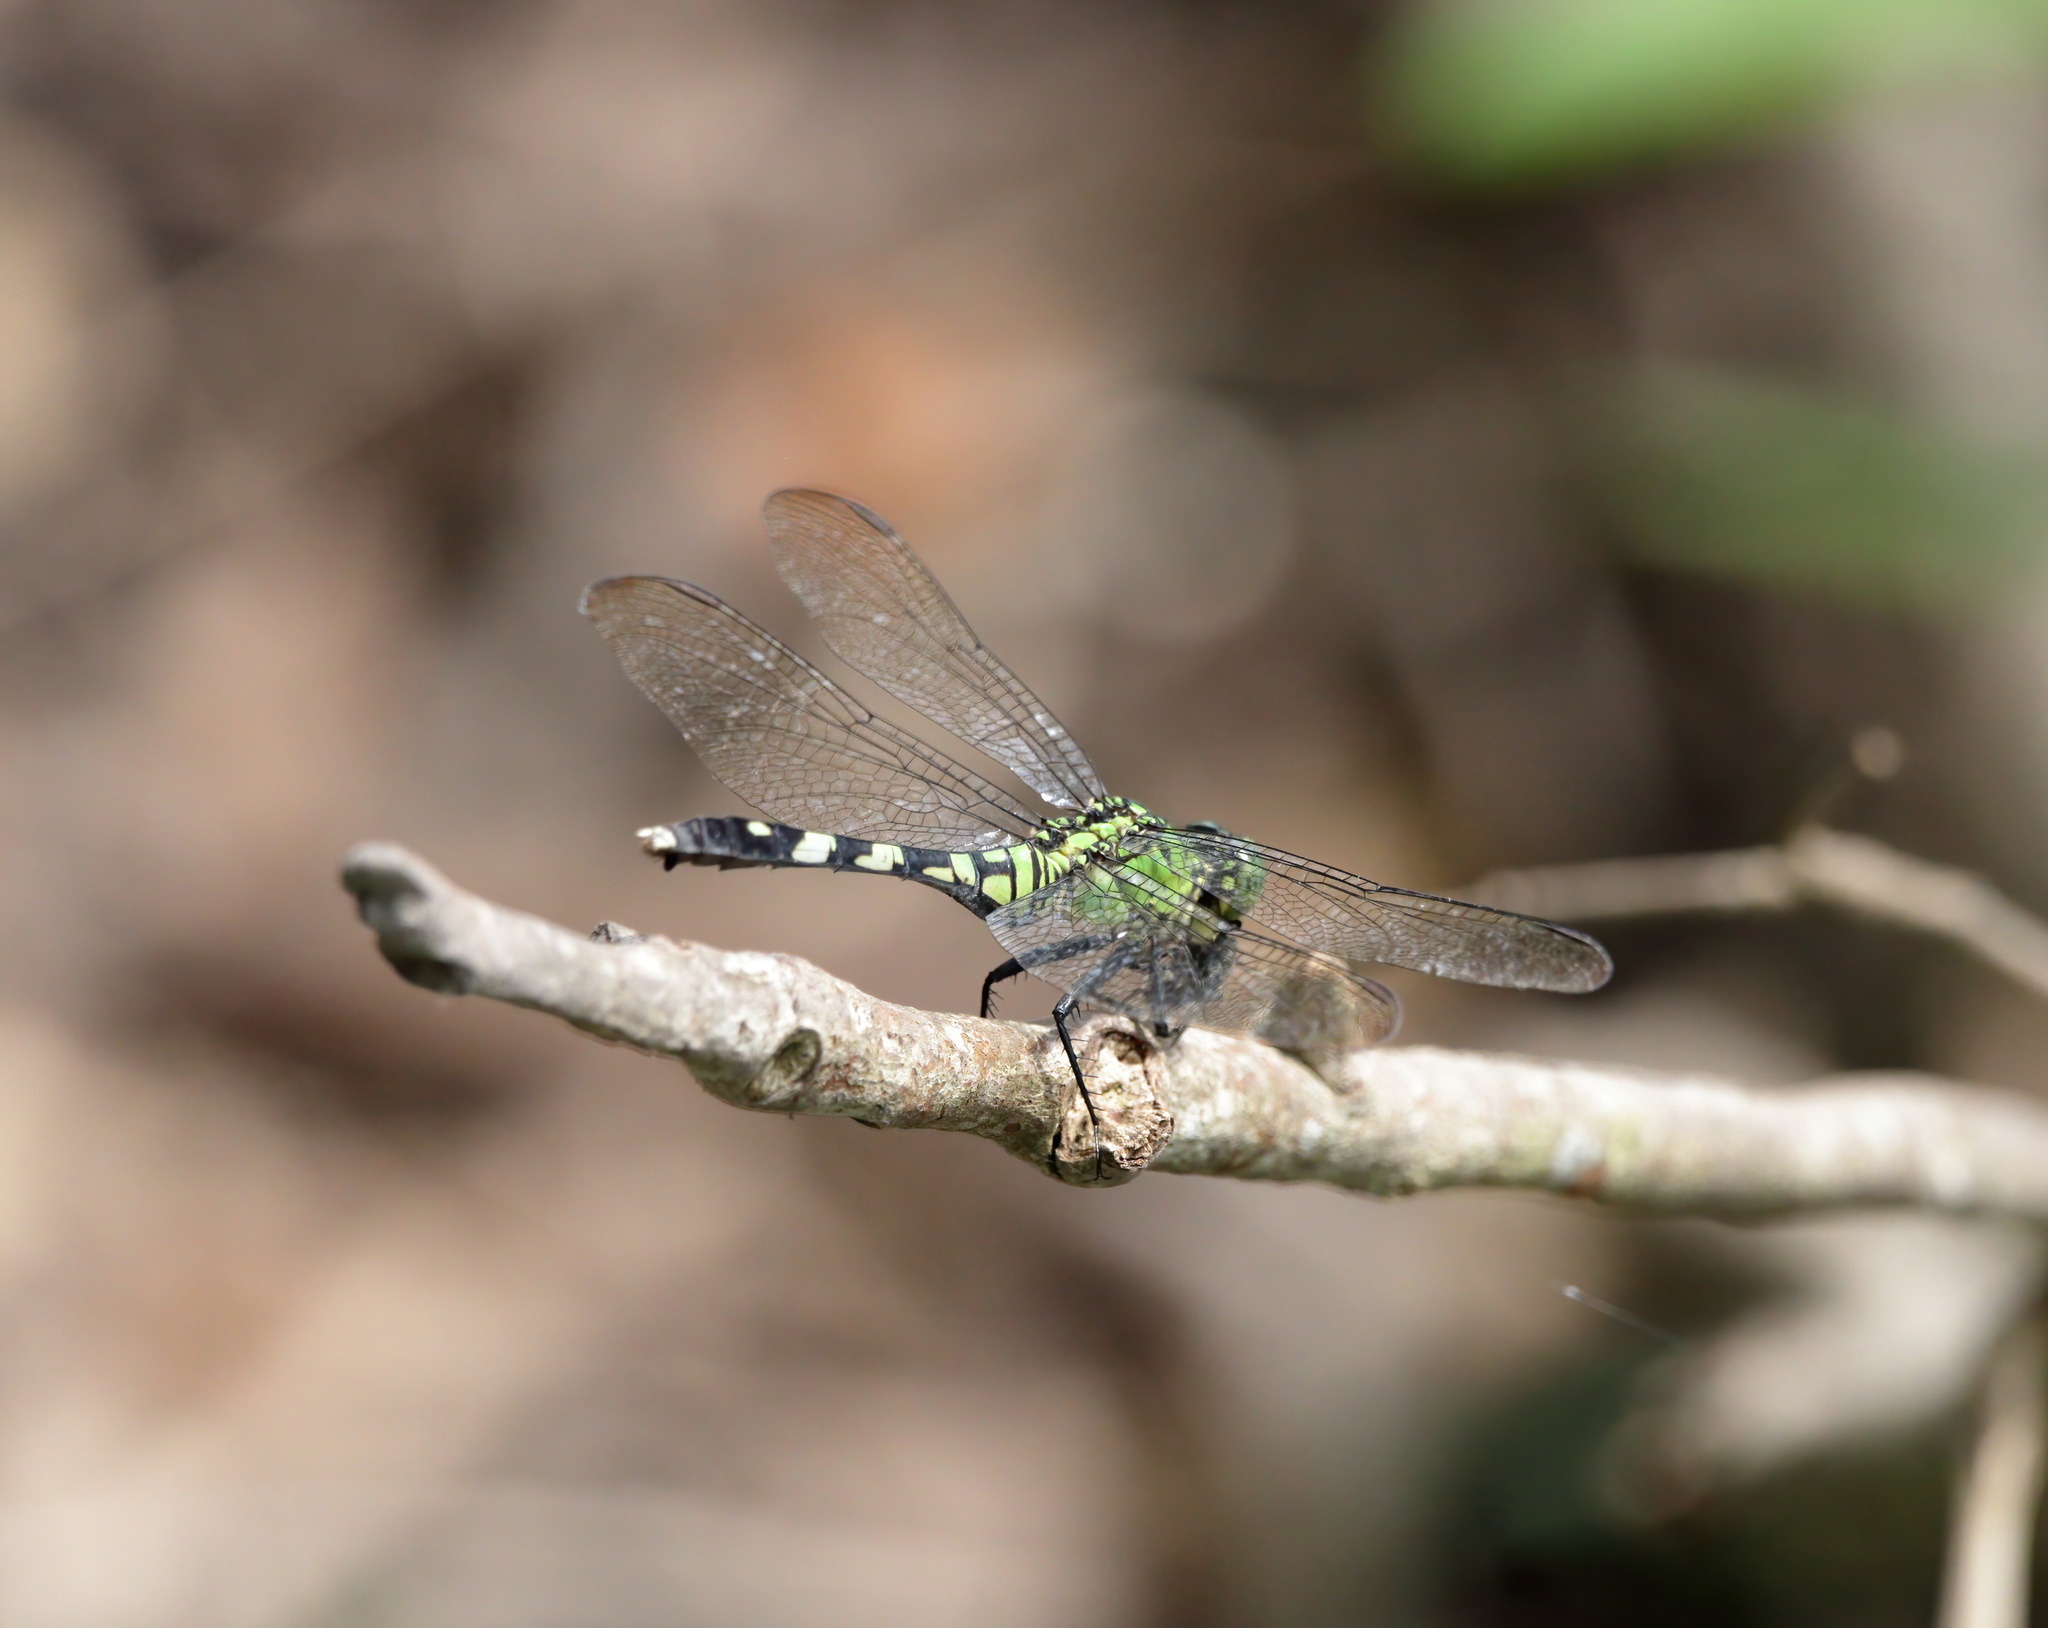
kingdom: Animalia
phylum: Arthropoda
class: Insecta
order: Odonata
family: Libellulidae
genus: Erythemis
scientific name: Erythemis simplicicollis
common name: Eastern pondhawk
